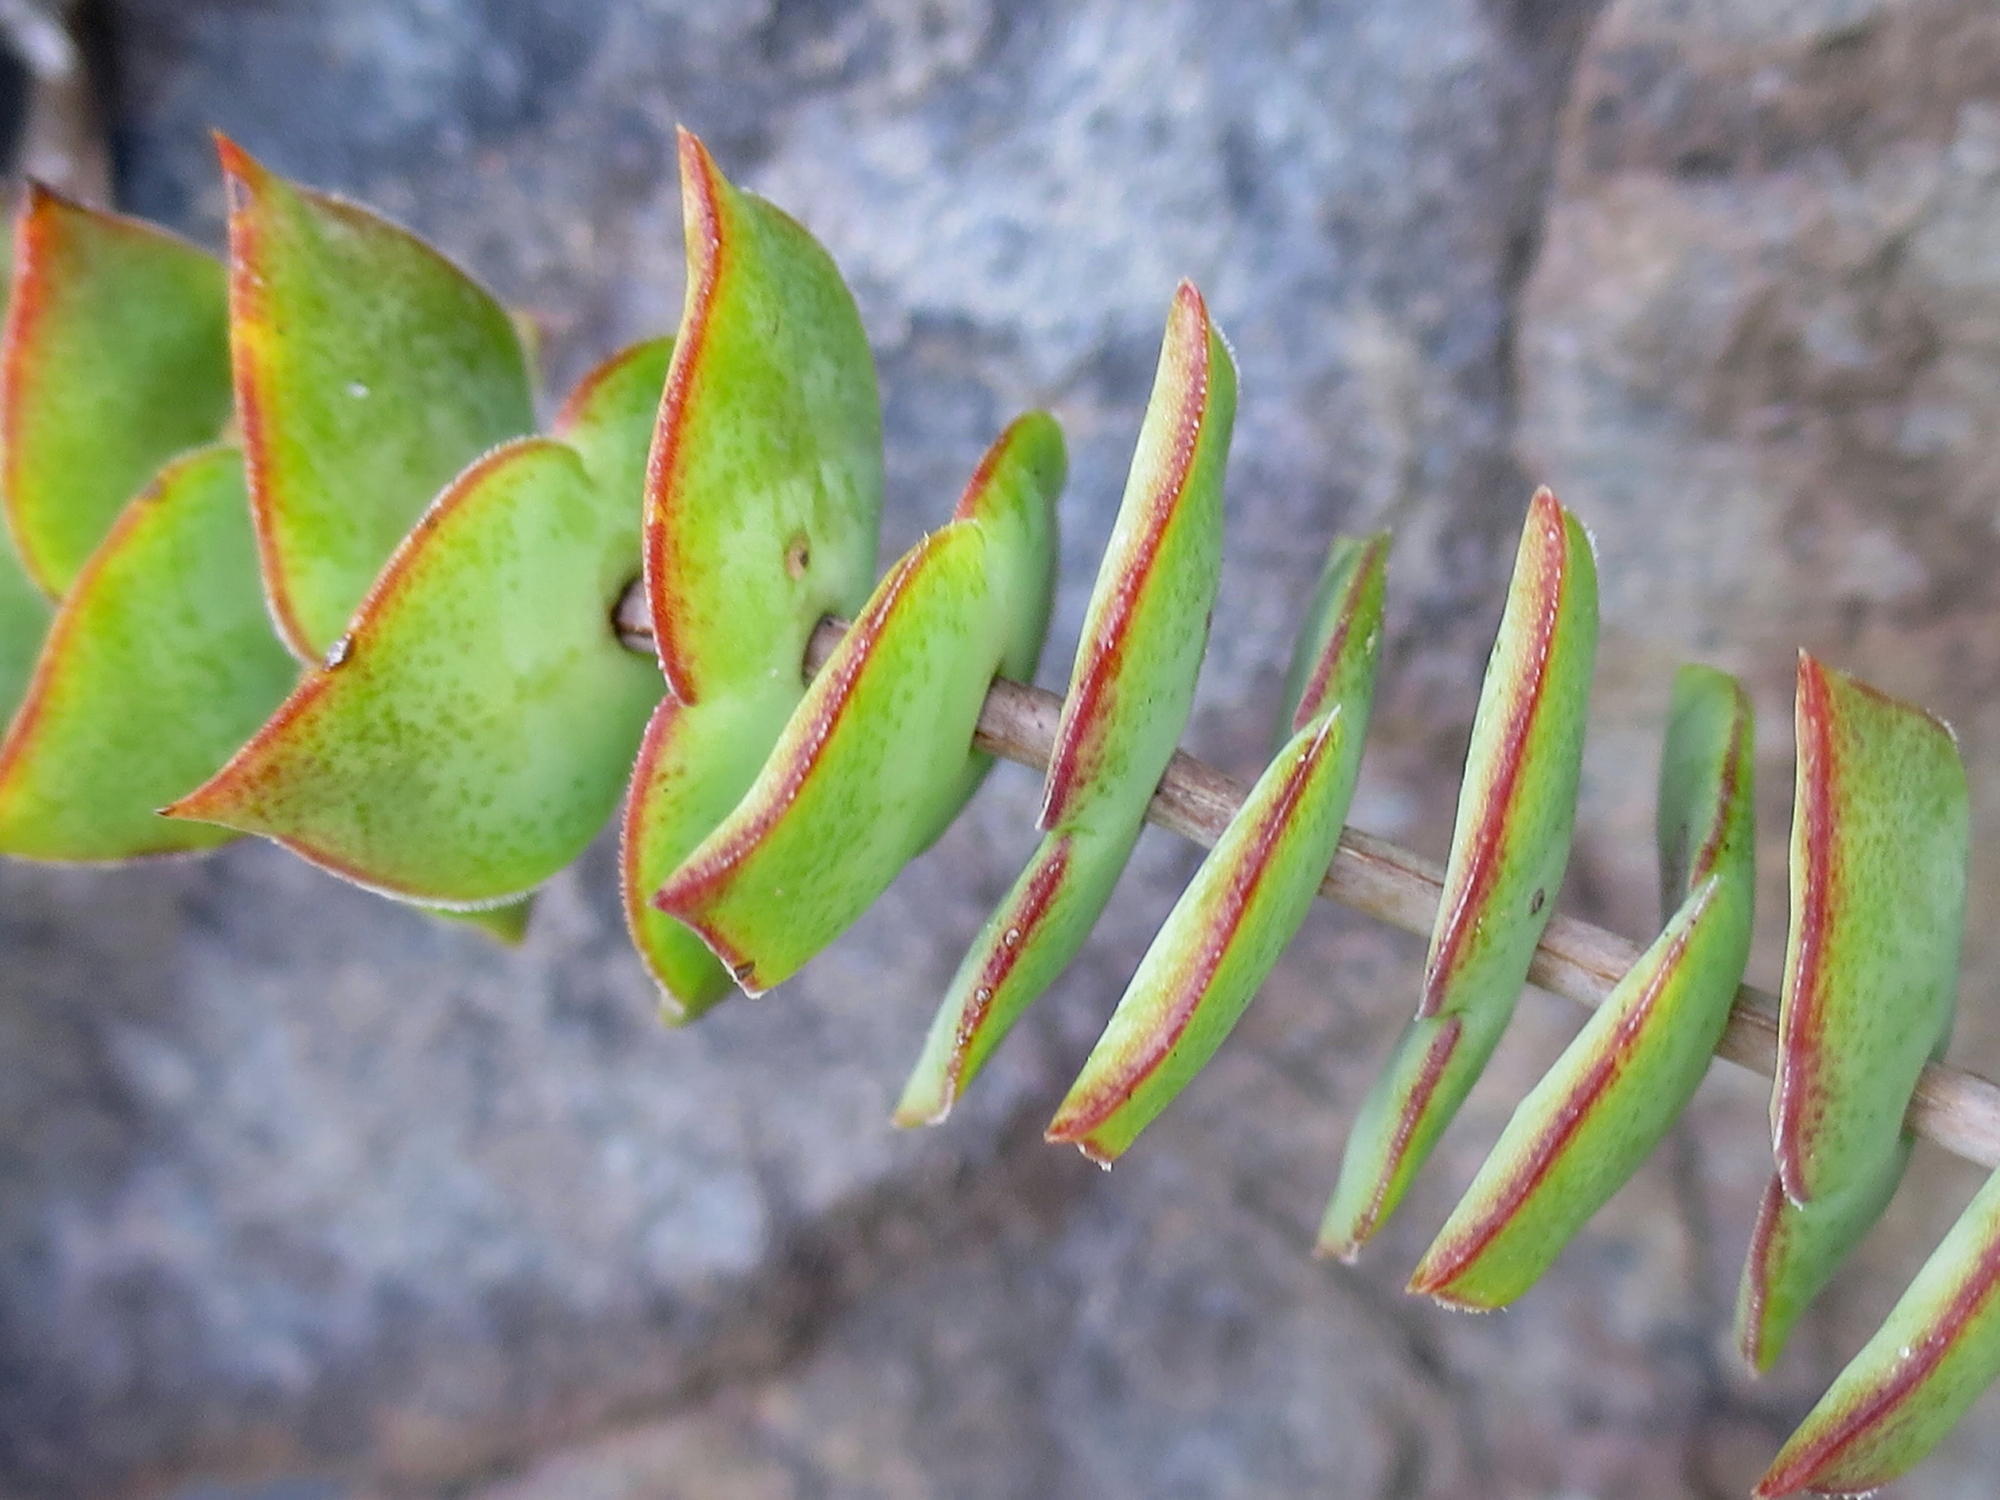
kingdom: Plantae
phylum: Tracheophyta
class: Magnoliopsida
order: Saxifragales
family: Crassulaceae
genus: Crassula
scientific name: Crassula perforata
